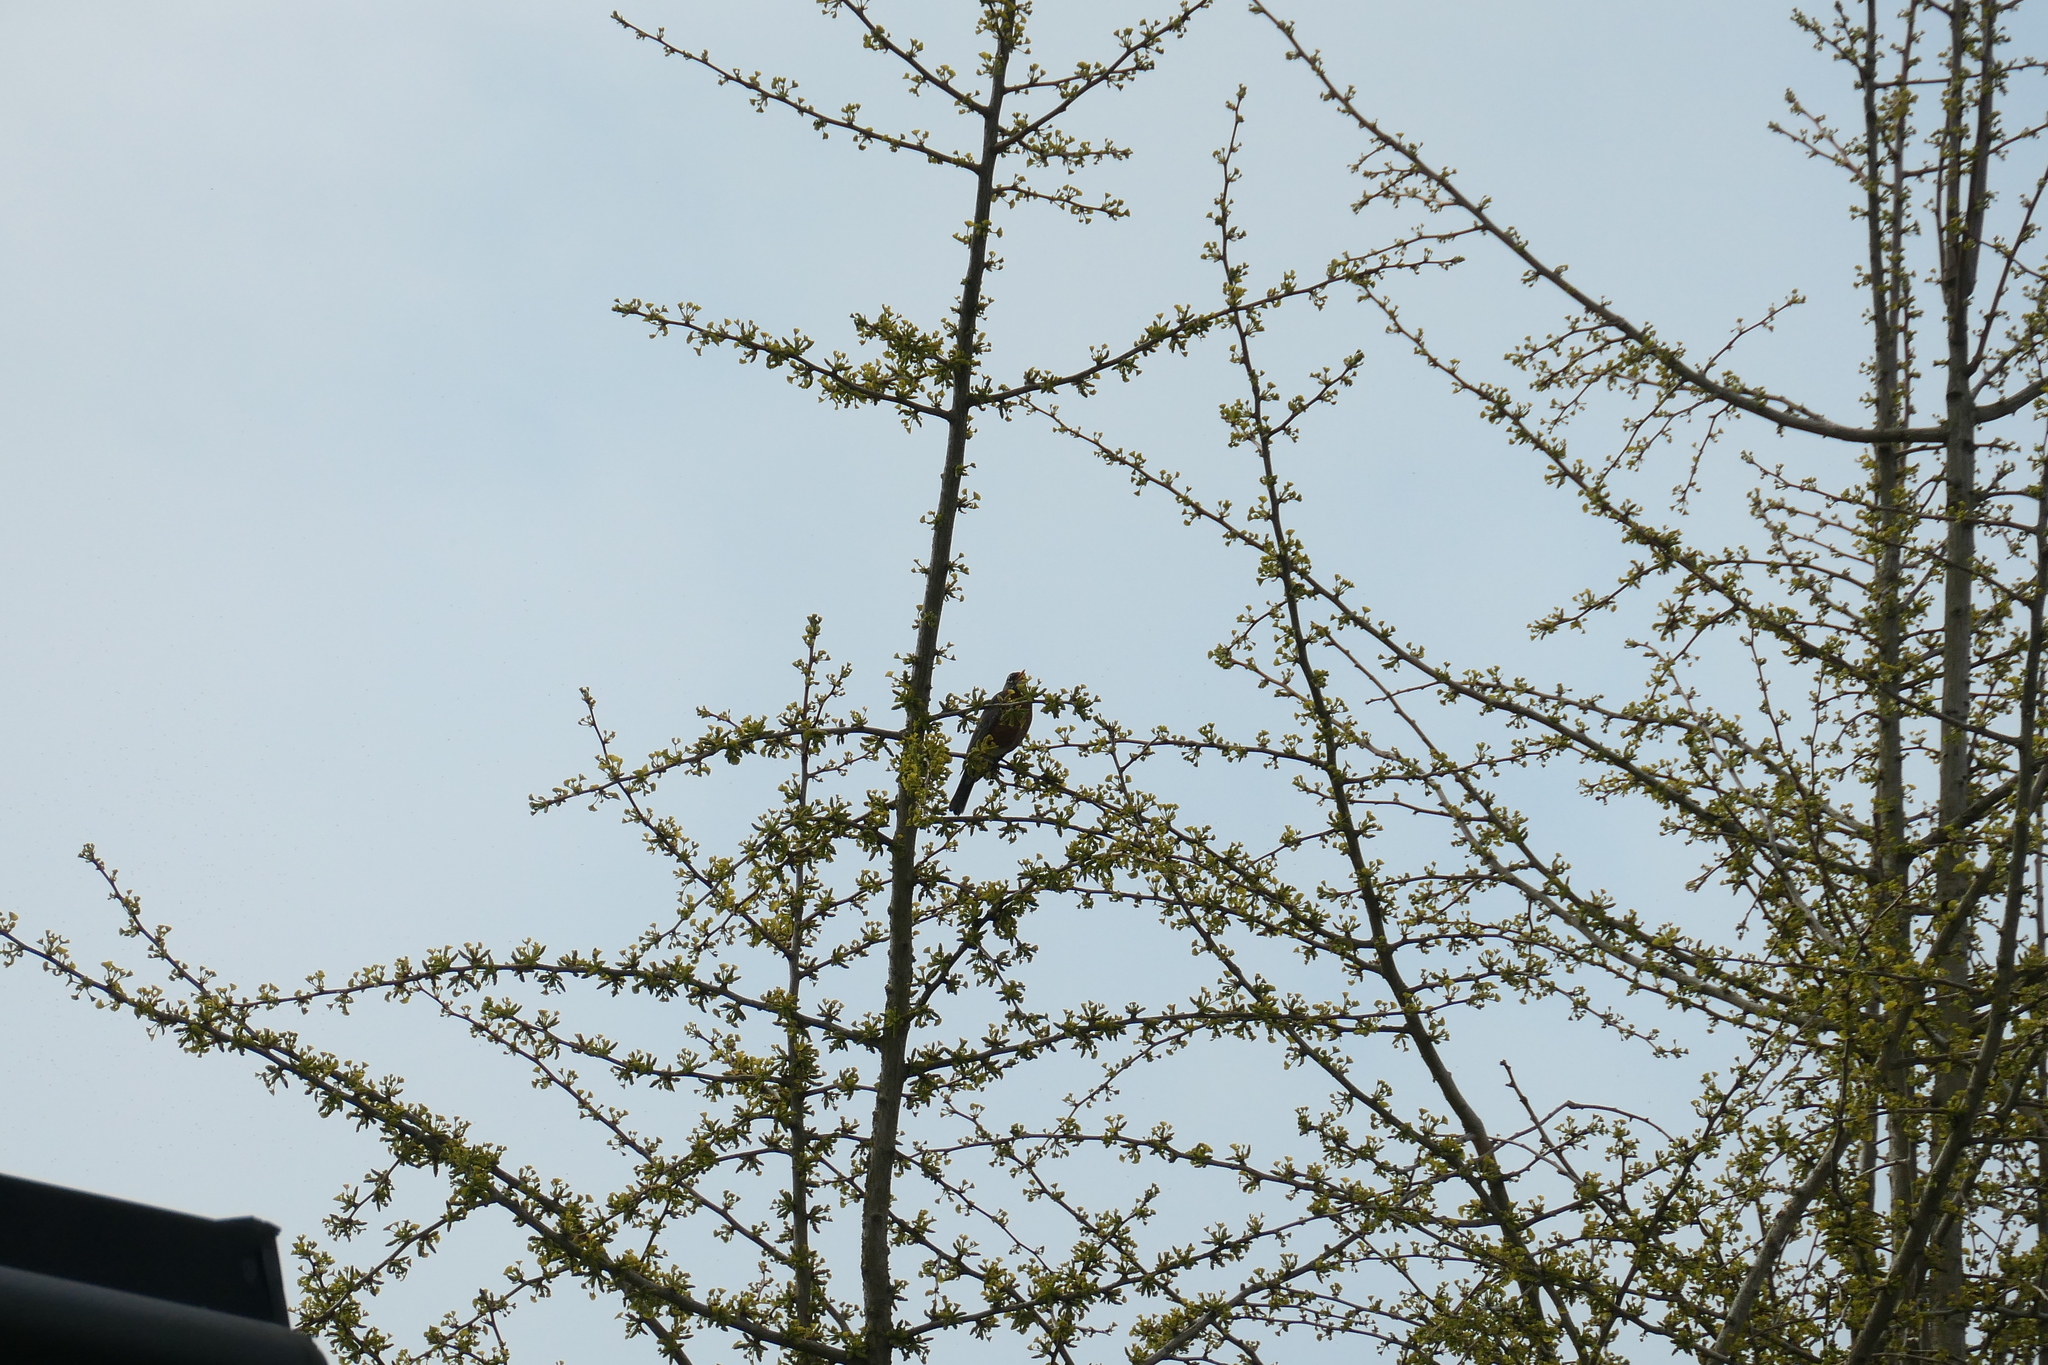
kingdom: Animalia
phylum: Chordata
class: Aves
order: Passeriformes
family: Turdidae
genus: Turdus
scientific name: Turdus migratorius
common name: American robin
